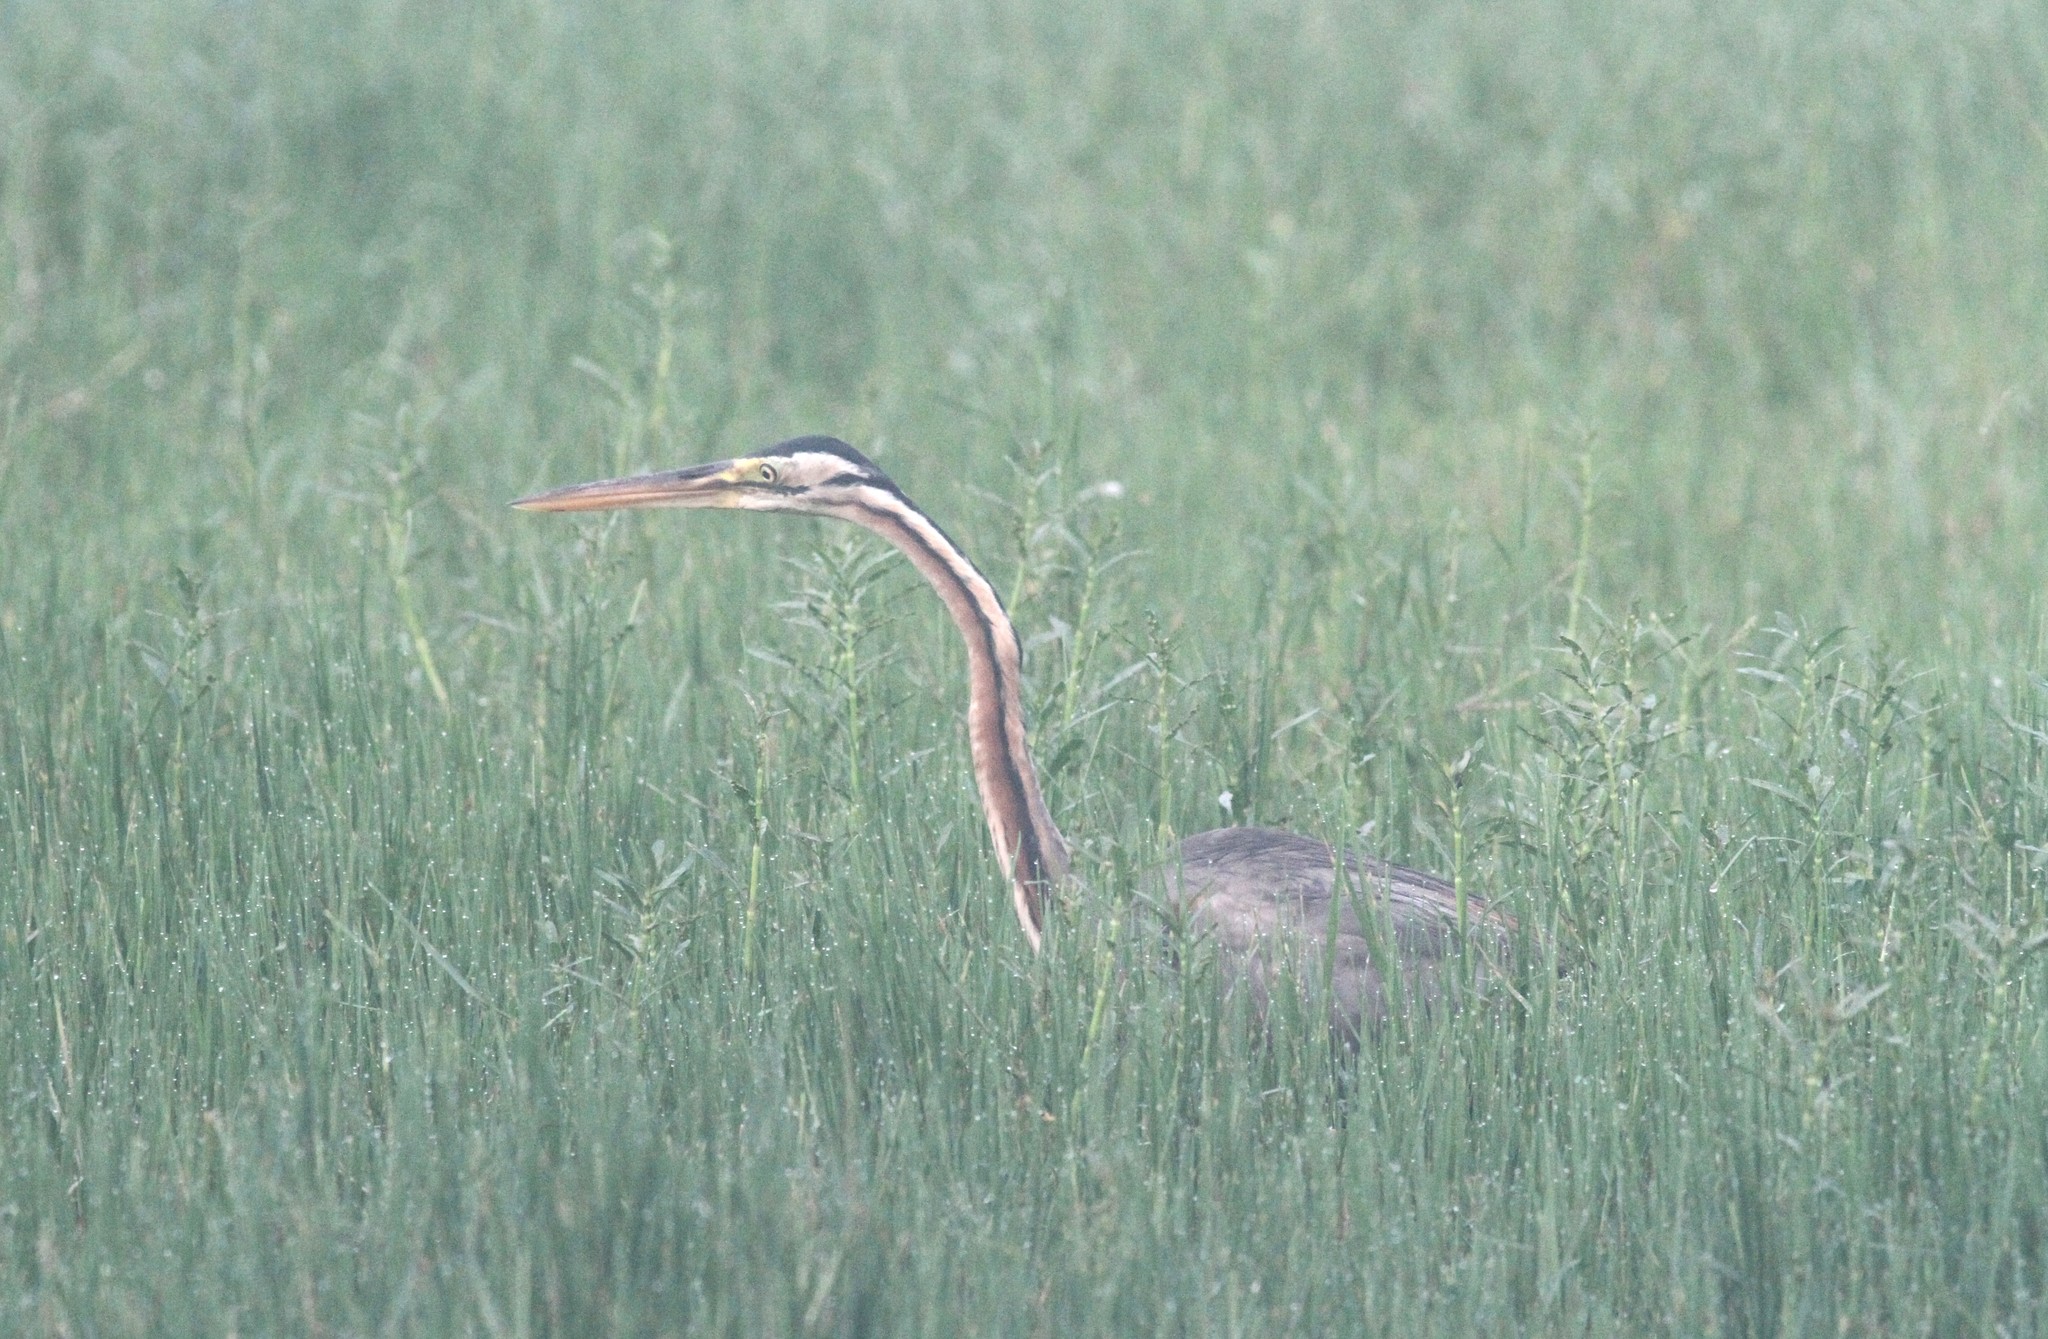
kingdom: Animalia
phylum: Chordata
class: Aves
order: Pelecaniformes
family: Ardeidae
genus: Ardea
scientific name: Ardea purpurea
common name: Purple heron
